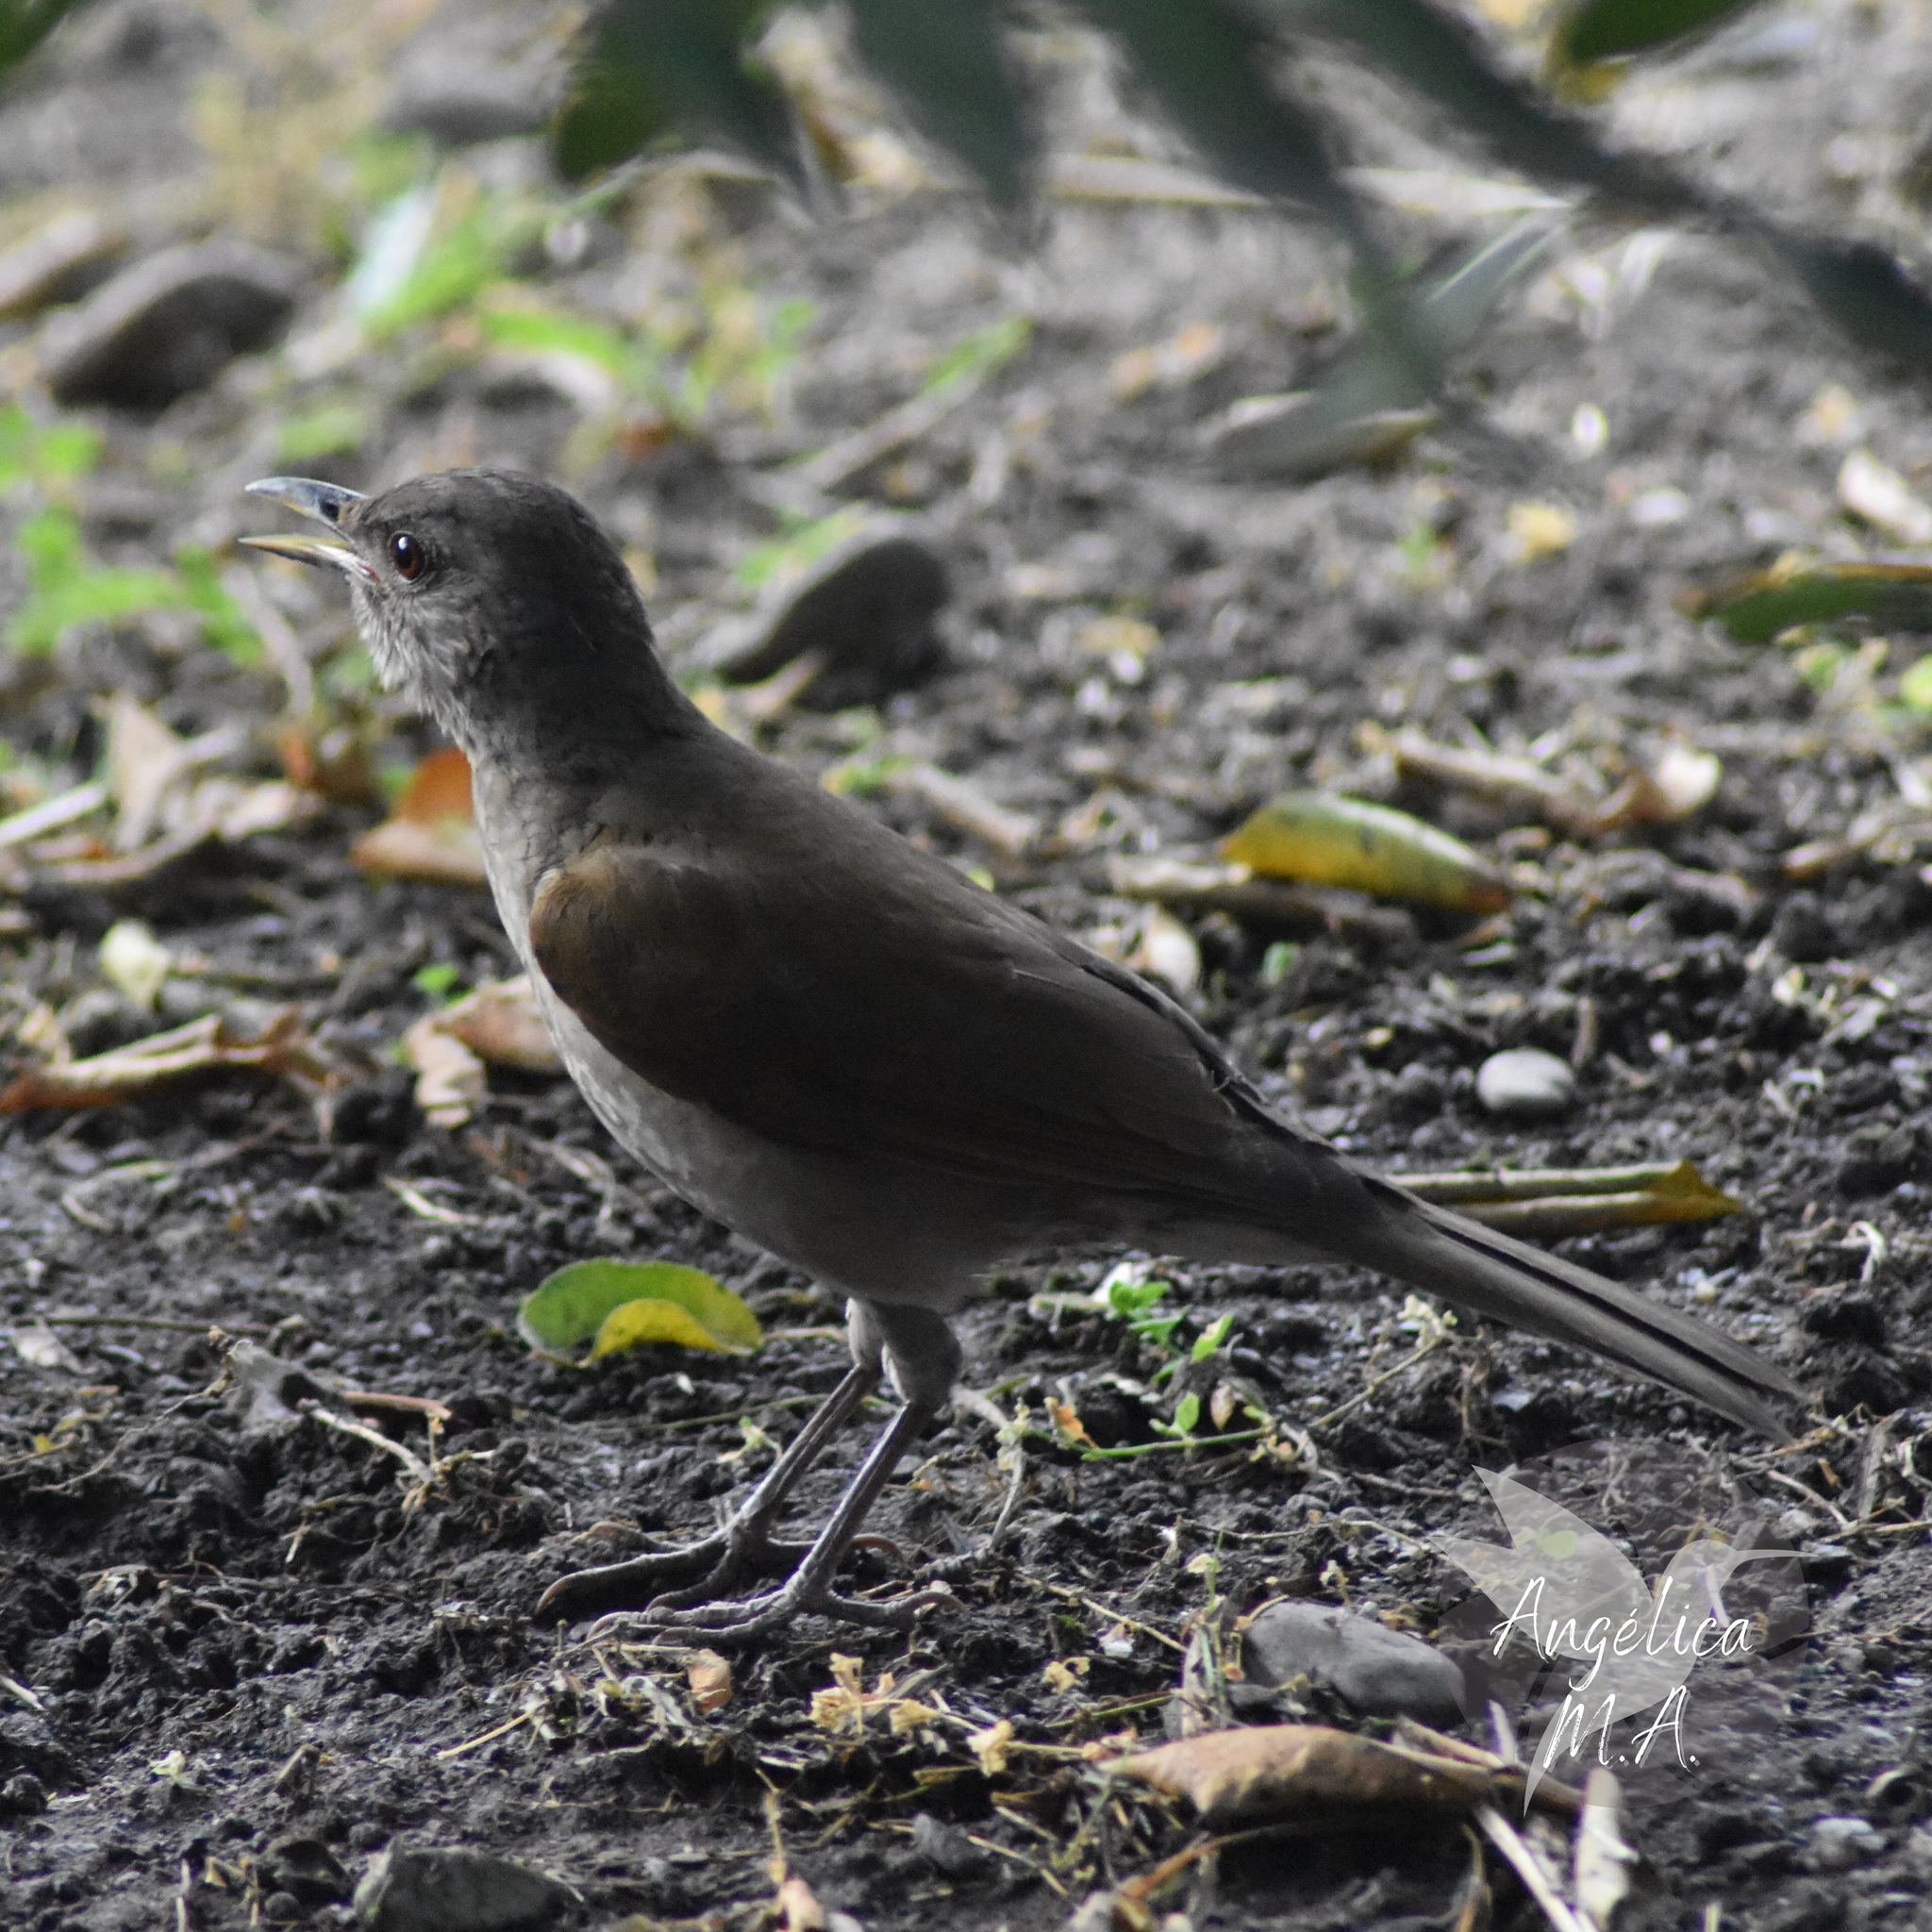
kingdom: Animalia
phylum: Chordata
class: Aves
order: Passeriformes
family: Turdidae
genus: Turdus
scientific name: Turdus leucomelas
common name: Pale-breasted thrush
